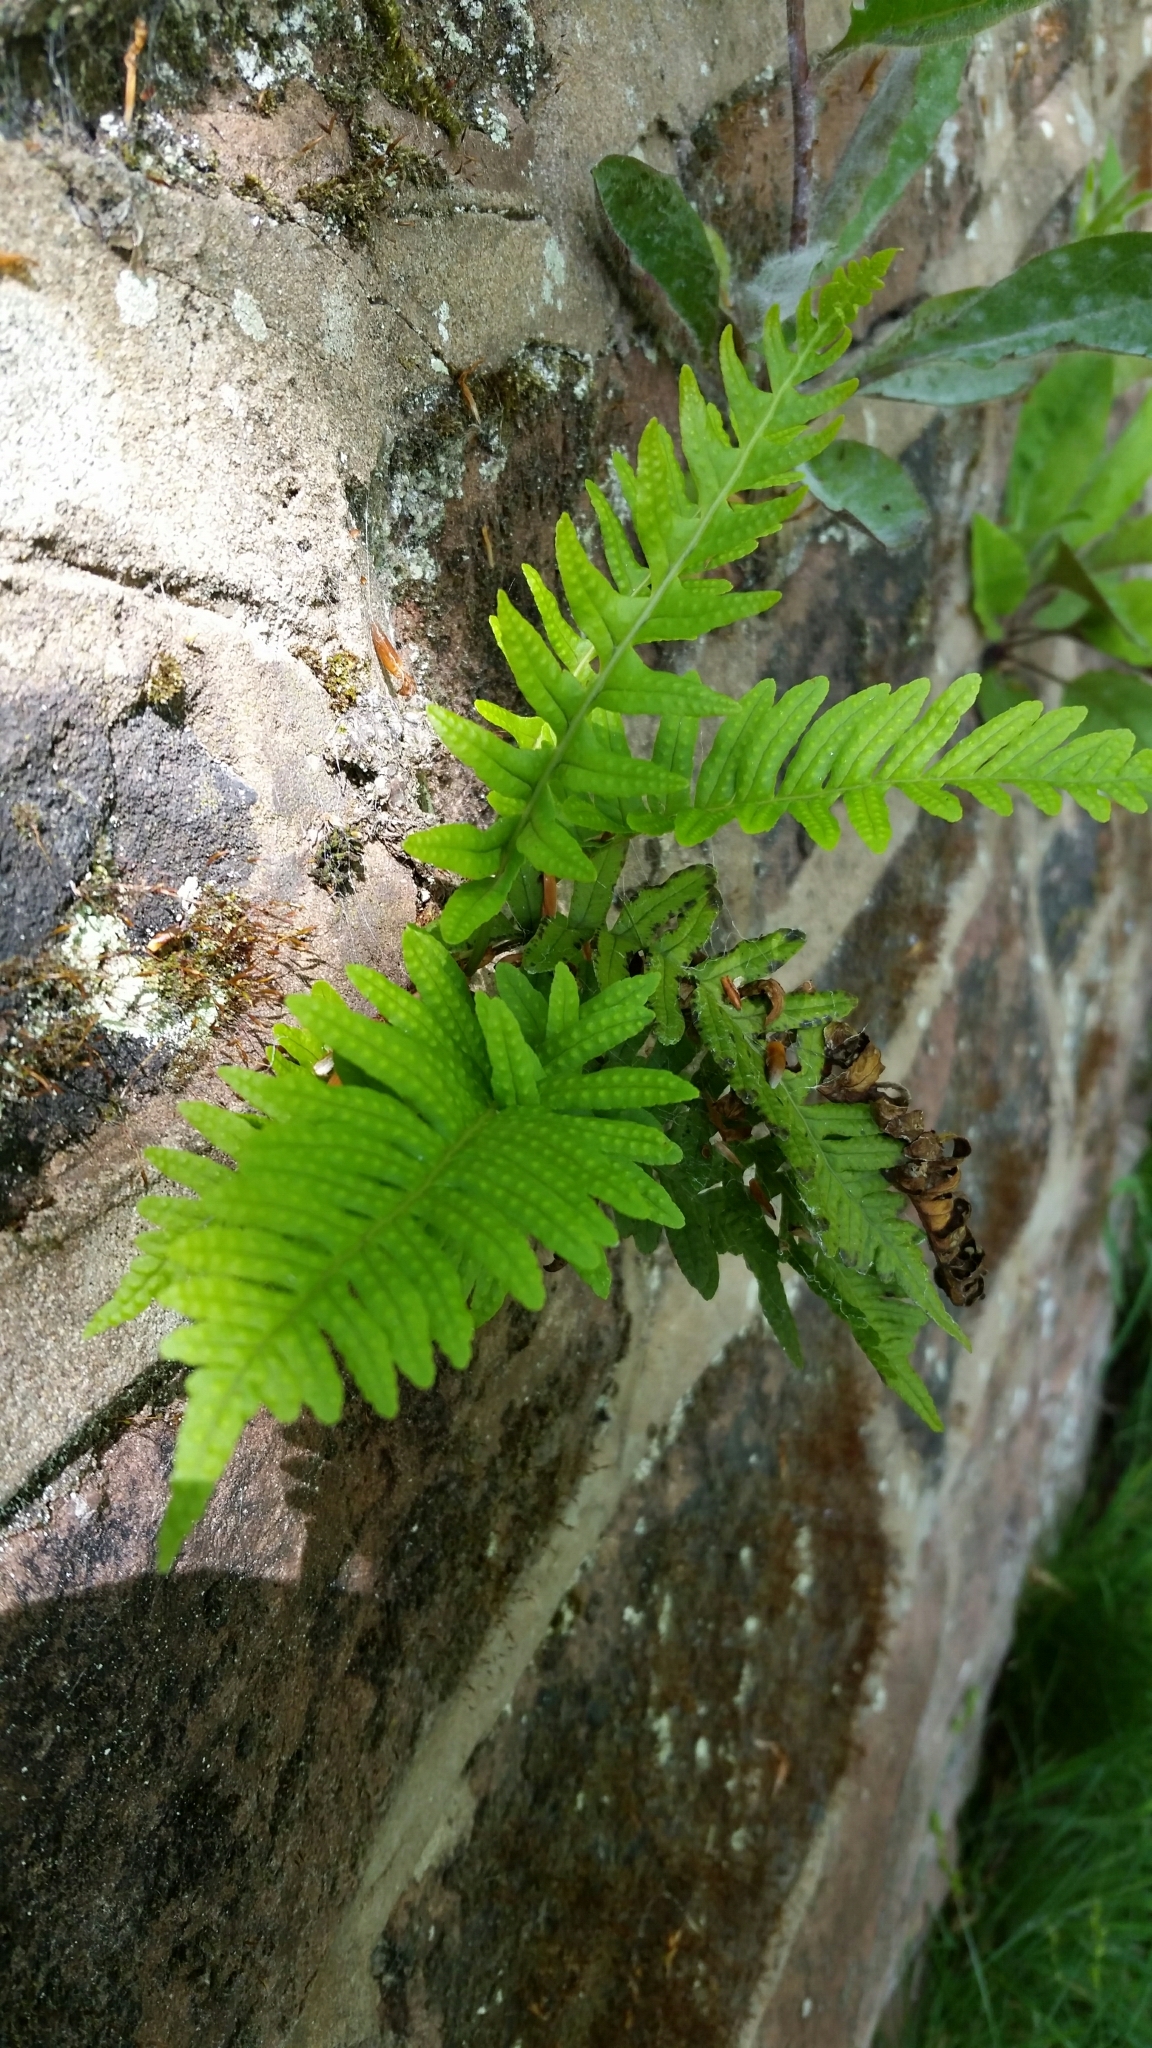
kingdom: Plantae
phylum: Tracheophyta
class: Polypodiopsida
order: Polypodiales
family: Polypodiaceae
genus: Polypodium
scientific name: Polypodium vulgare
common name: Common polypody
